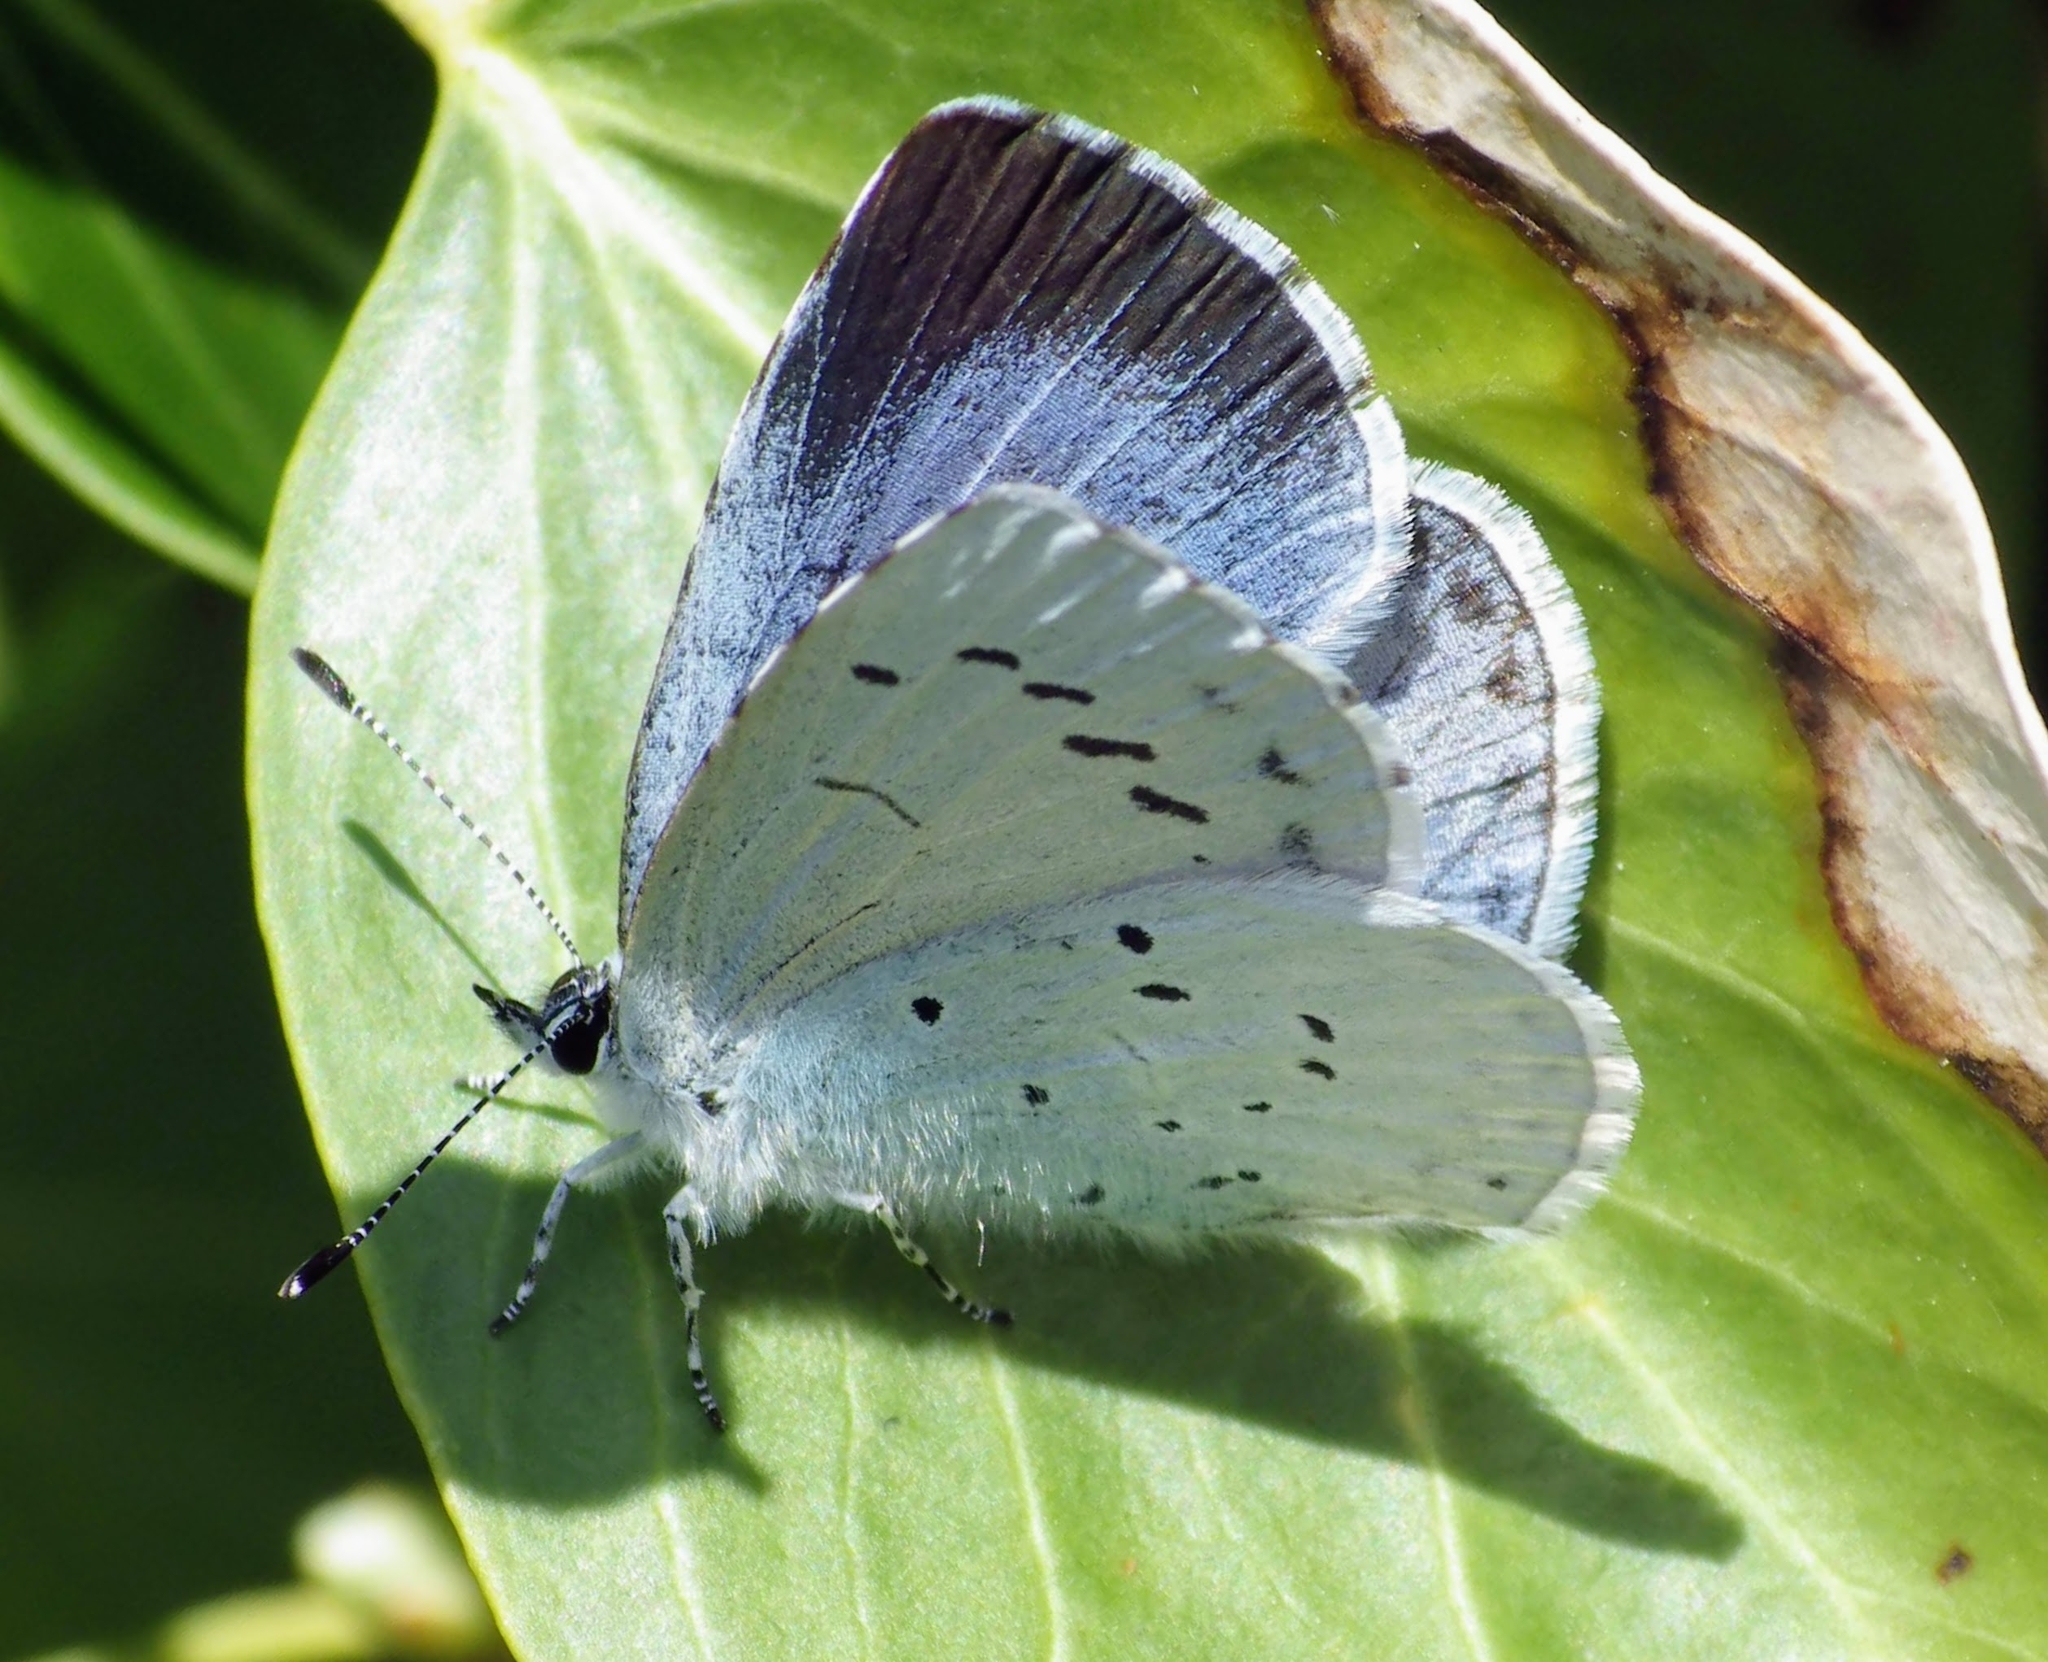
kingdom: Animalia
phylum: Arthropoda
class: Insecta
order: Lepidoptera
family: Lycaenidae
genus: Celastrina
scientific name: Celastrina argiolus
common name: Holly blue
